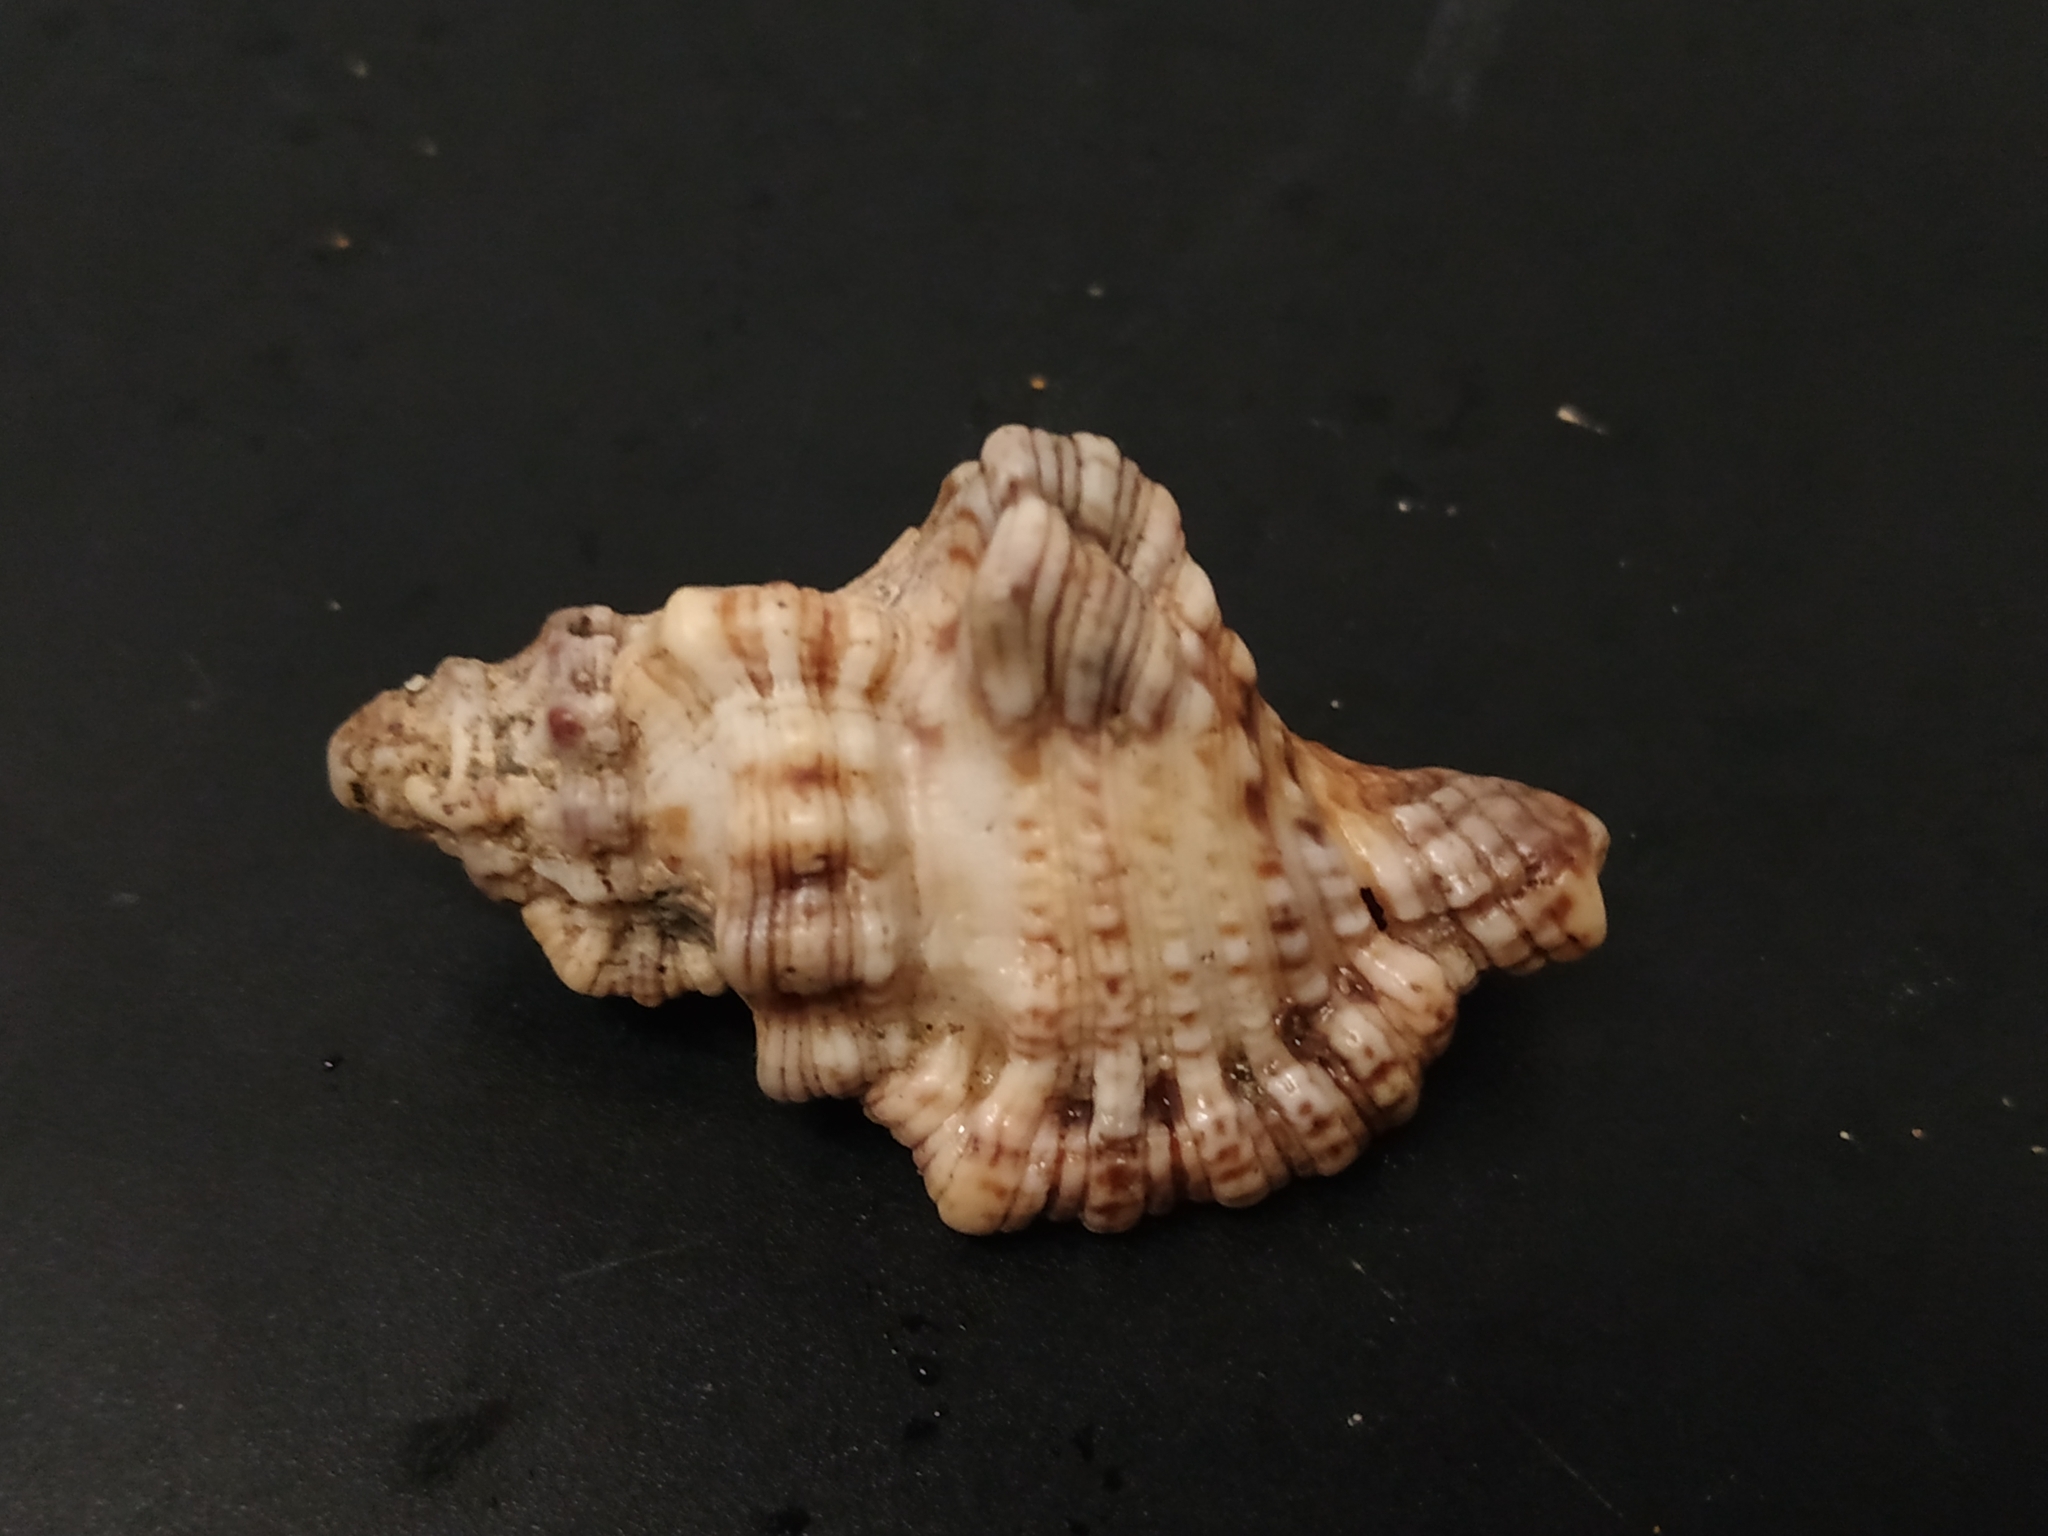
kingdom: Animalia
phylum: Mollusca
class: Gastropoda
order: Littorinimorpha
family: Cymatiidae
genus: Monoplex
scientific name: Monoplex nicobaricus
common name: Goldmouth triton
